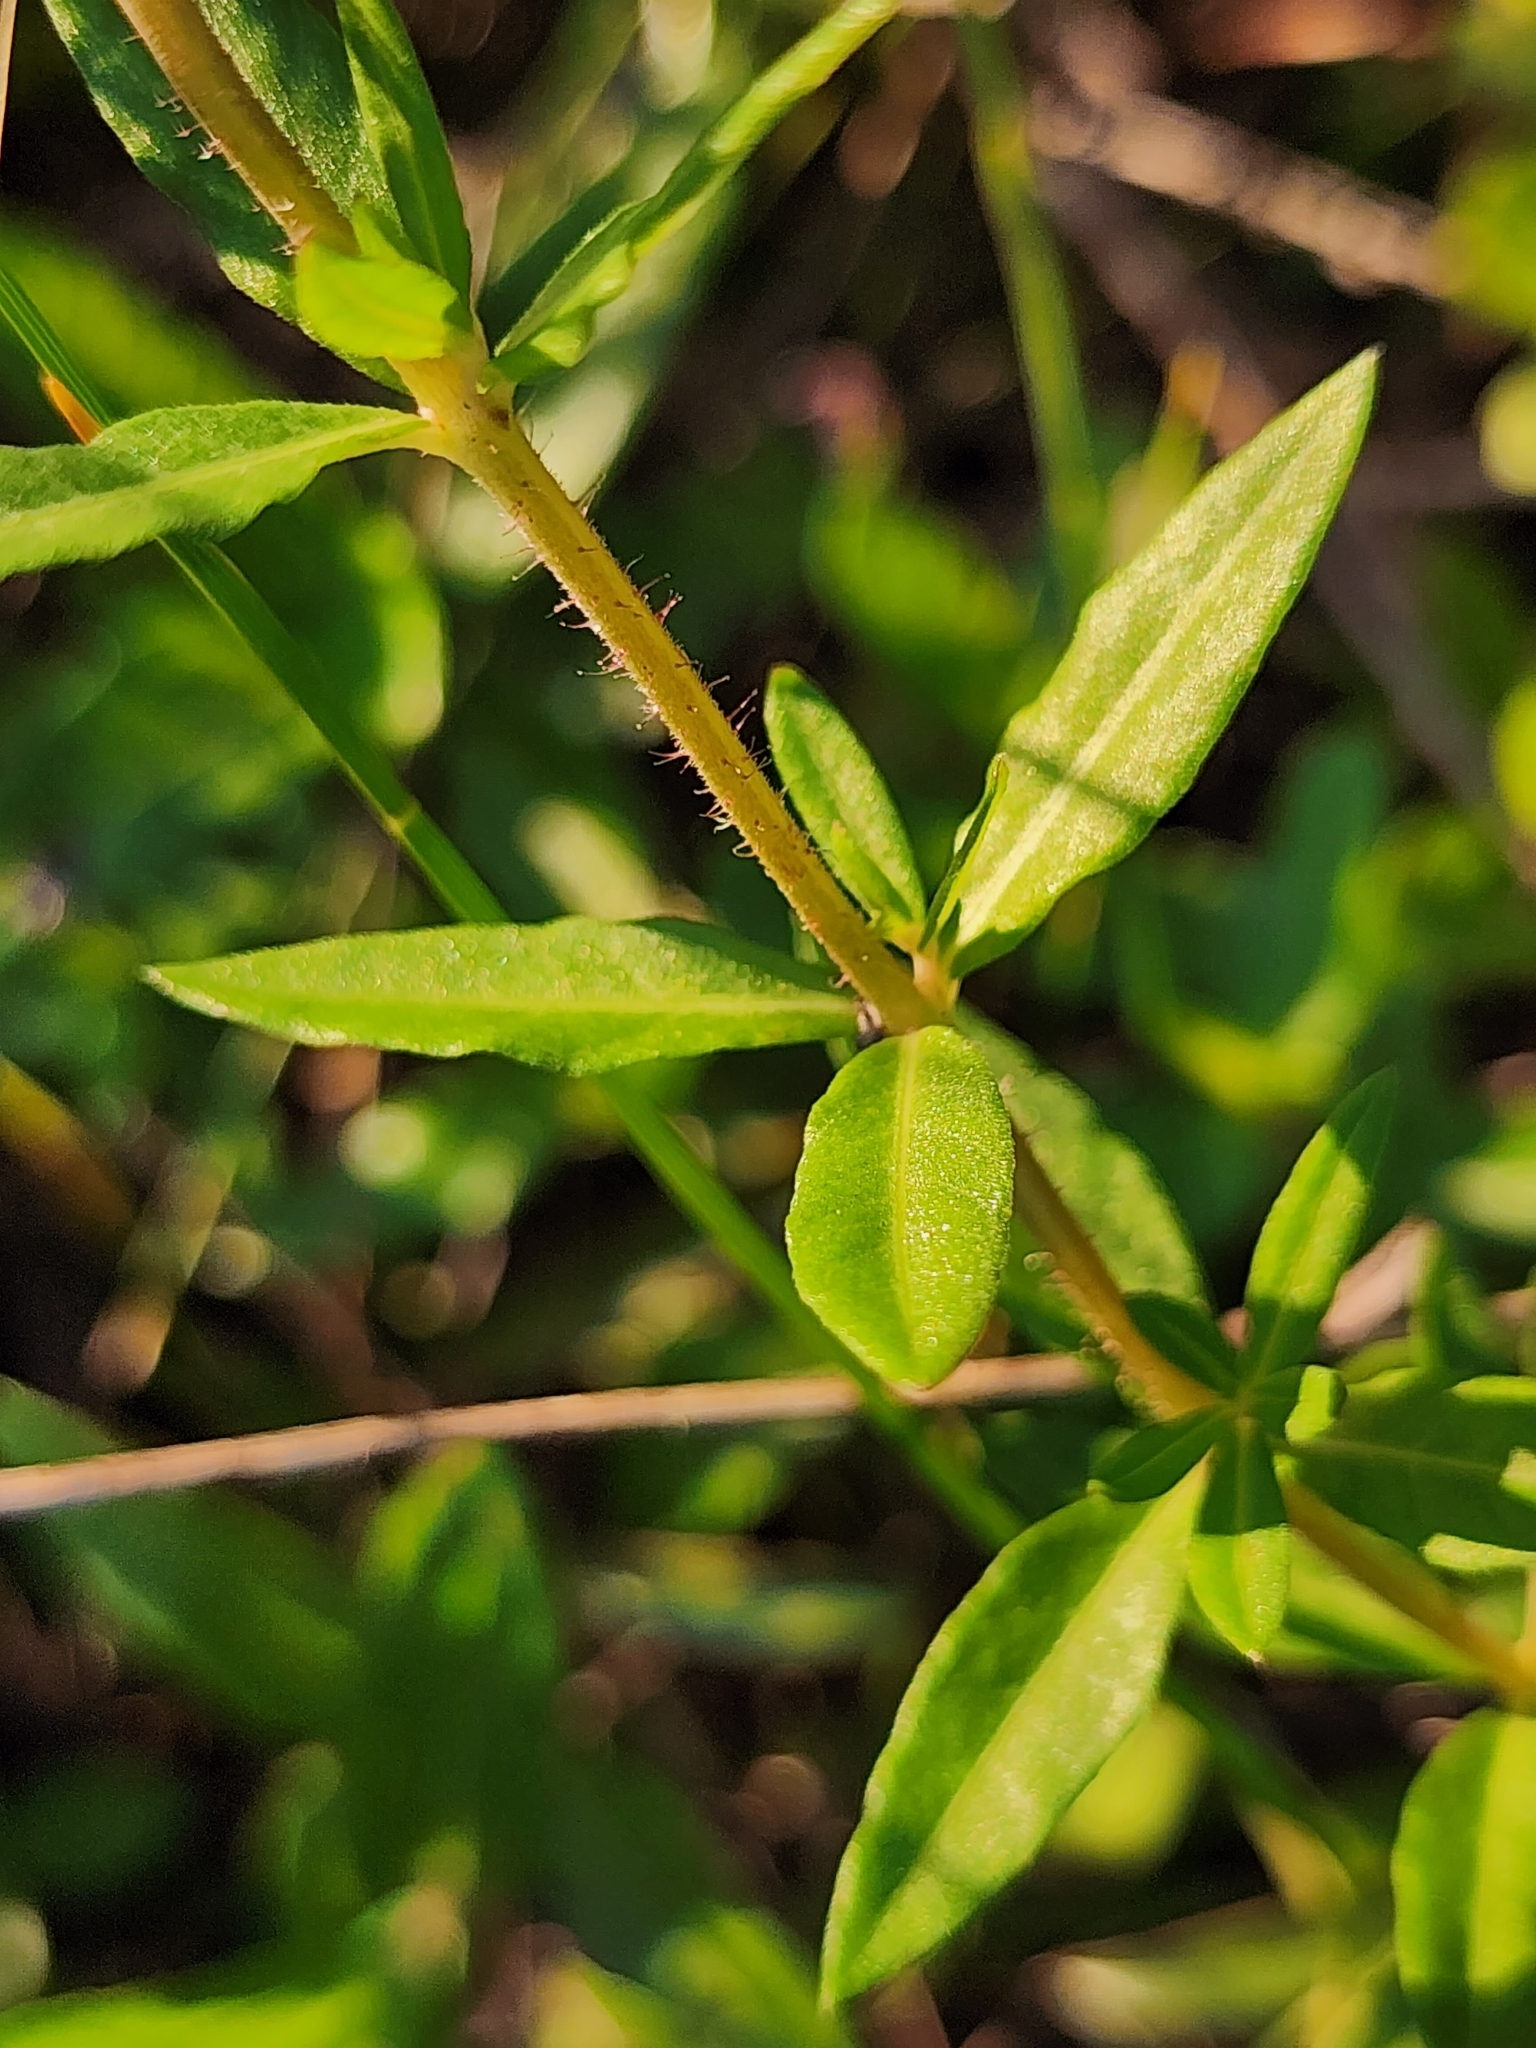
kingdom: Plantae
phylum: Tracheophyta
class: Magnoliopsida
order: Myrtales
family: Lythraceae
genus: Cuphea
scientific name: Cuphea aspera
